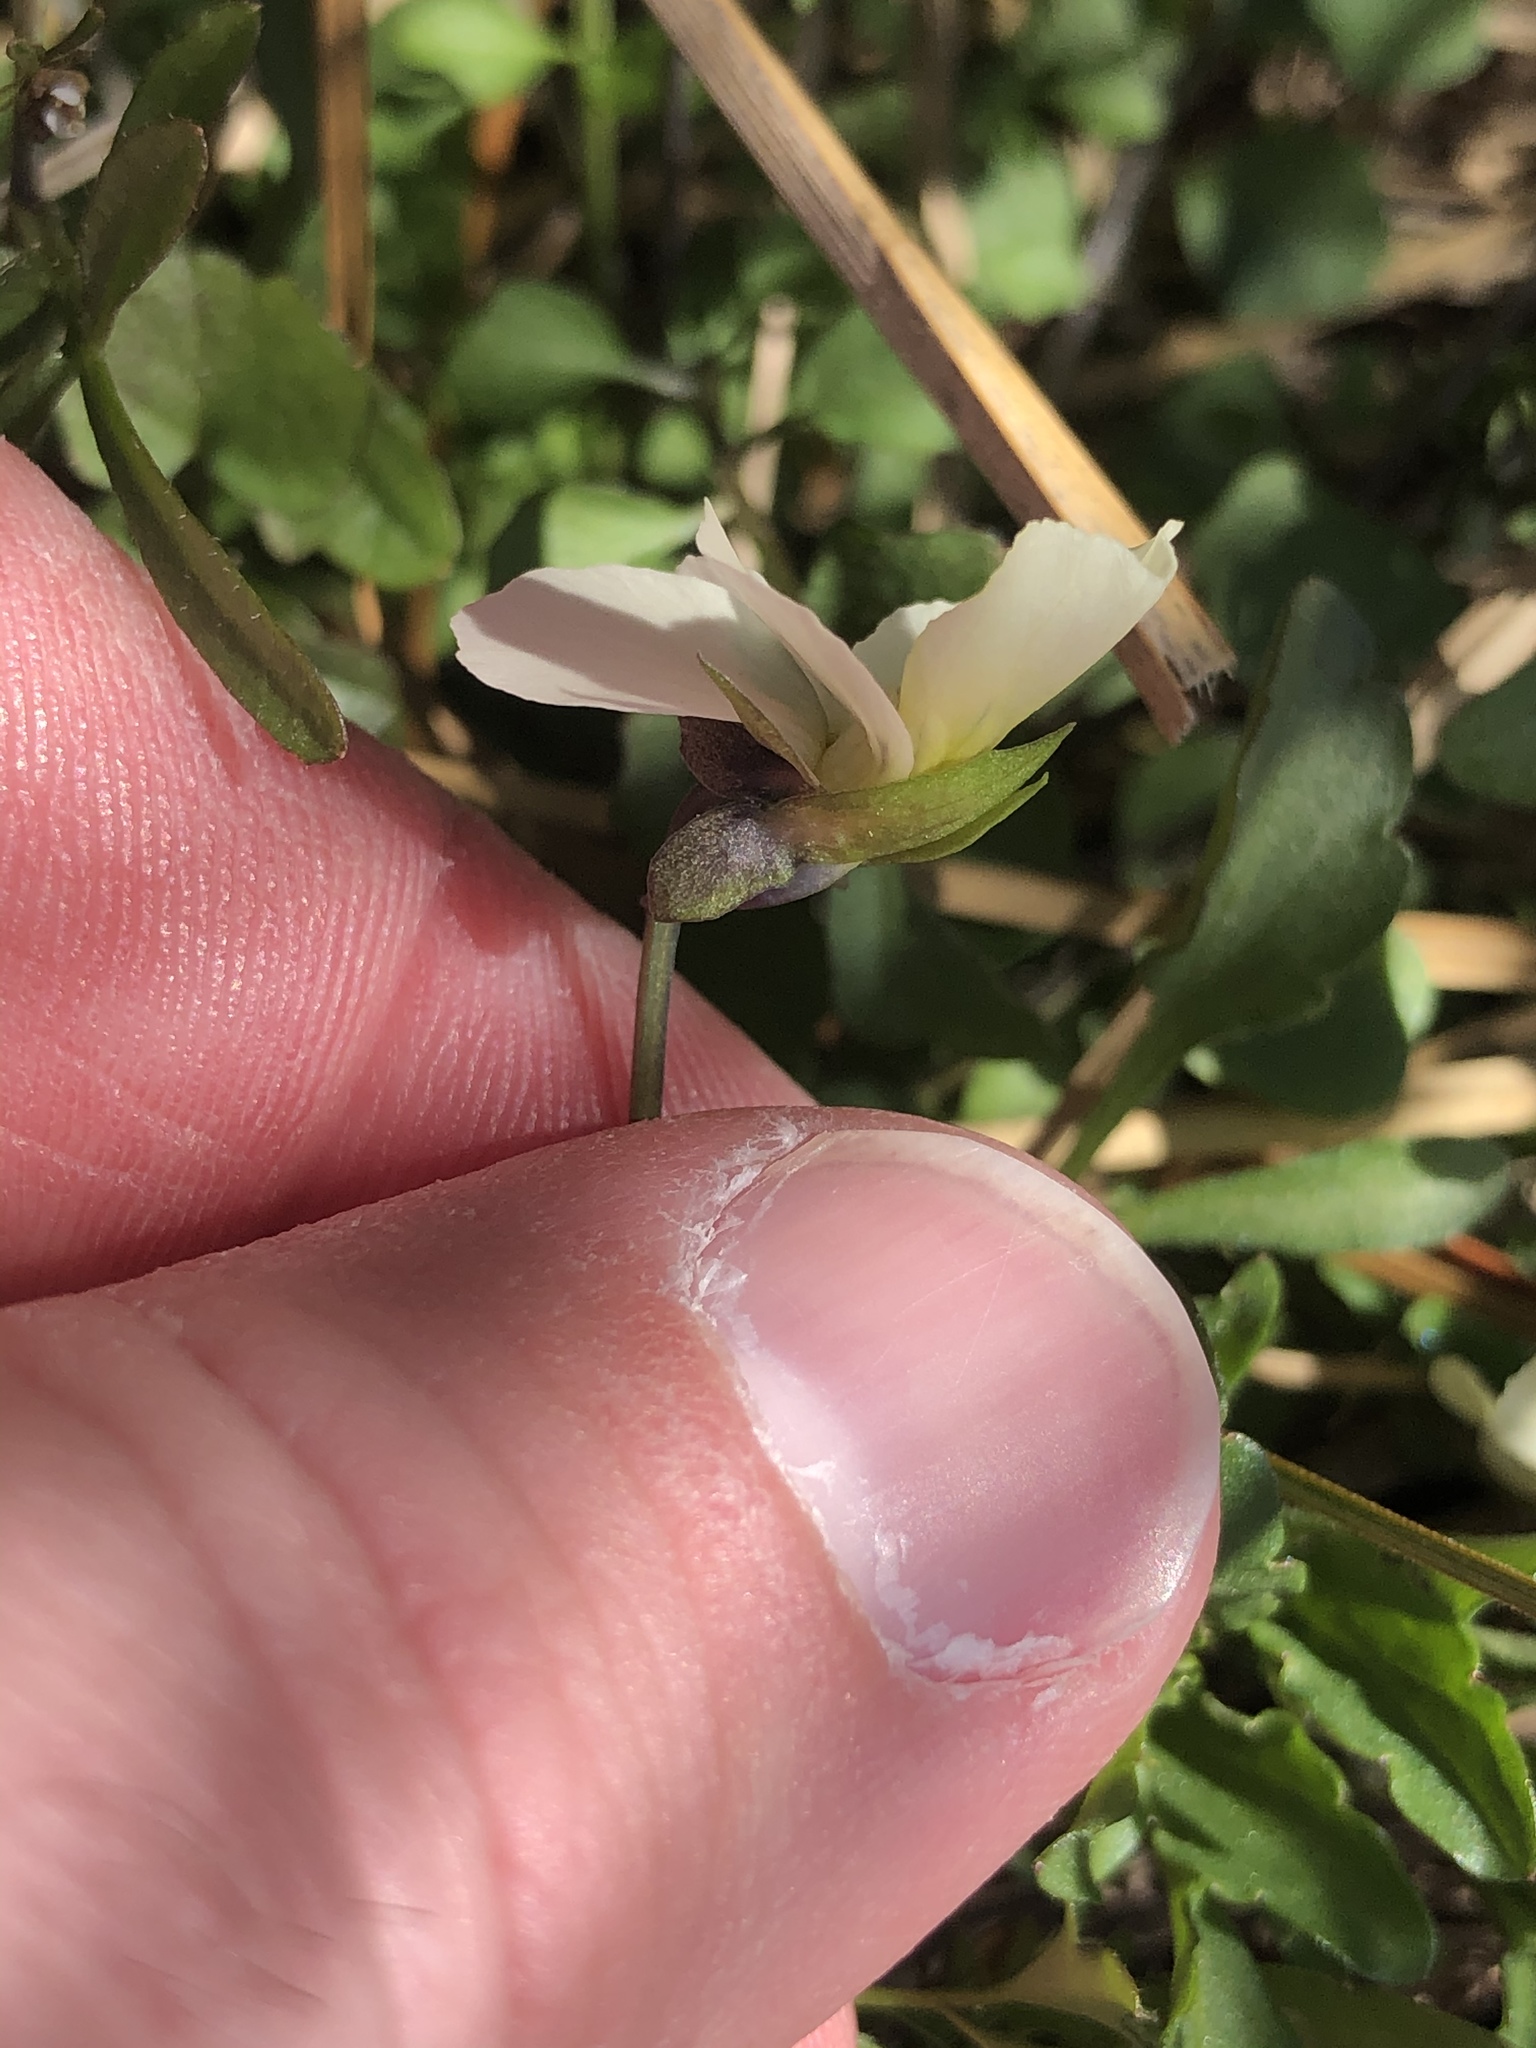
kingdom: Plantae
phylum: Tracheophyta
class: Magnoliopsida
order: Malpighiales
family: Violaceae
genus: Viola
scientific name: Viola wittrockiana
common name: Garden pansy
